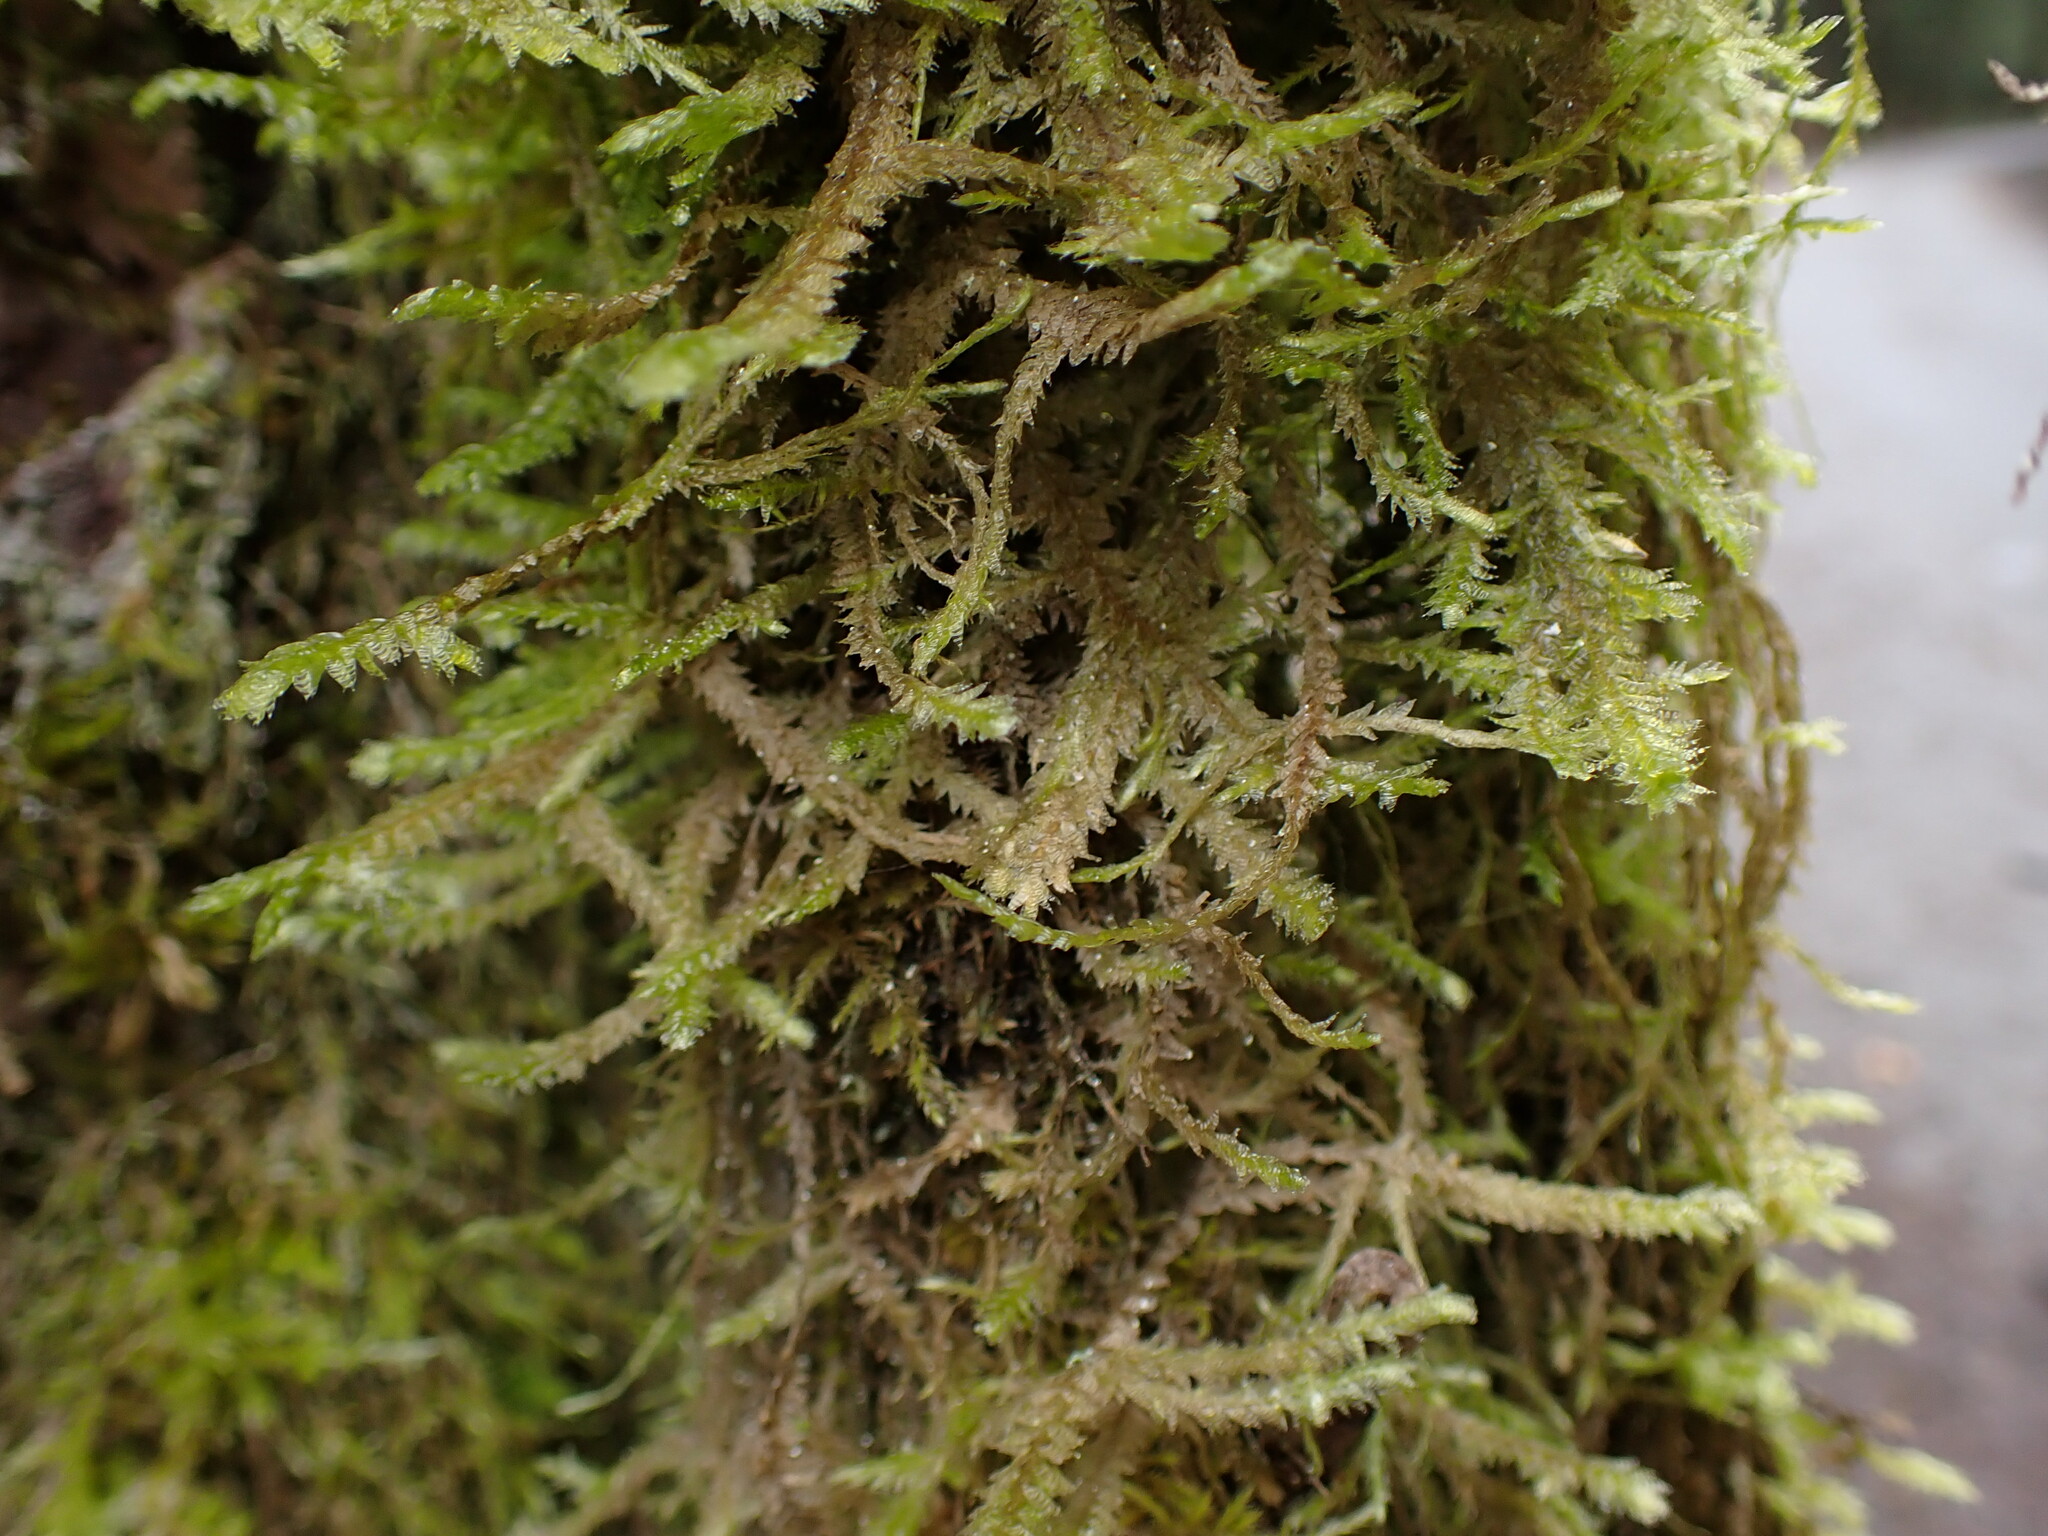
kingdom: Plantae
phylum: Bryophyta
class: Bryopsida
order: Hypnales
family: Neckeraceae
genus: Neckera
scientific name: Neckera douglasii
